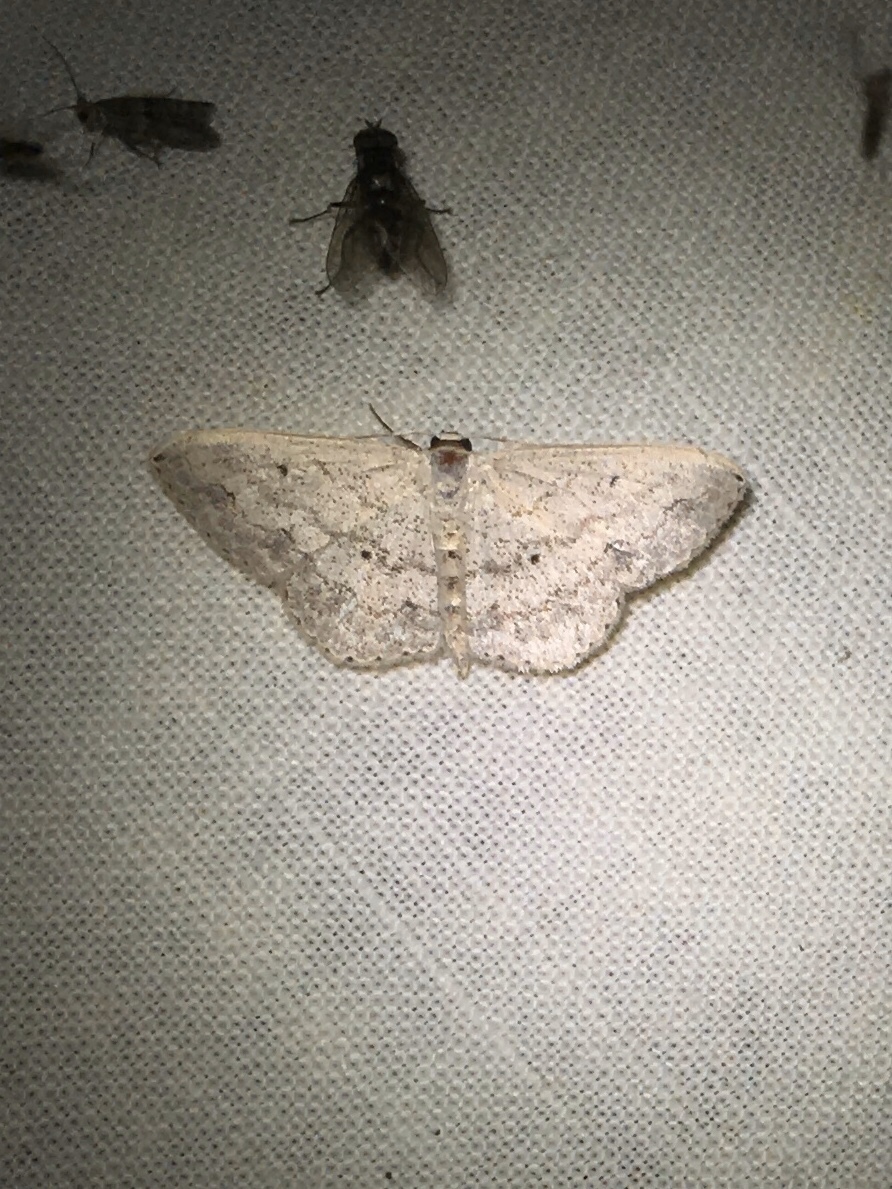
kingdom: Animalia
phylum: Arthropoda
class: Insecta
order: Lepidoptera
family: Geometridae
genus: Scopula
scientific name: Scopula umbilicata
